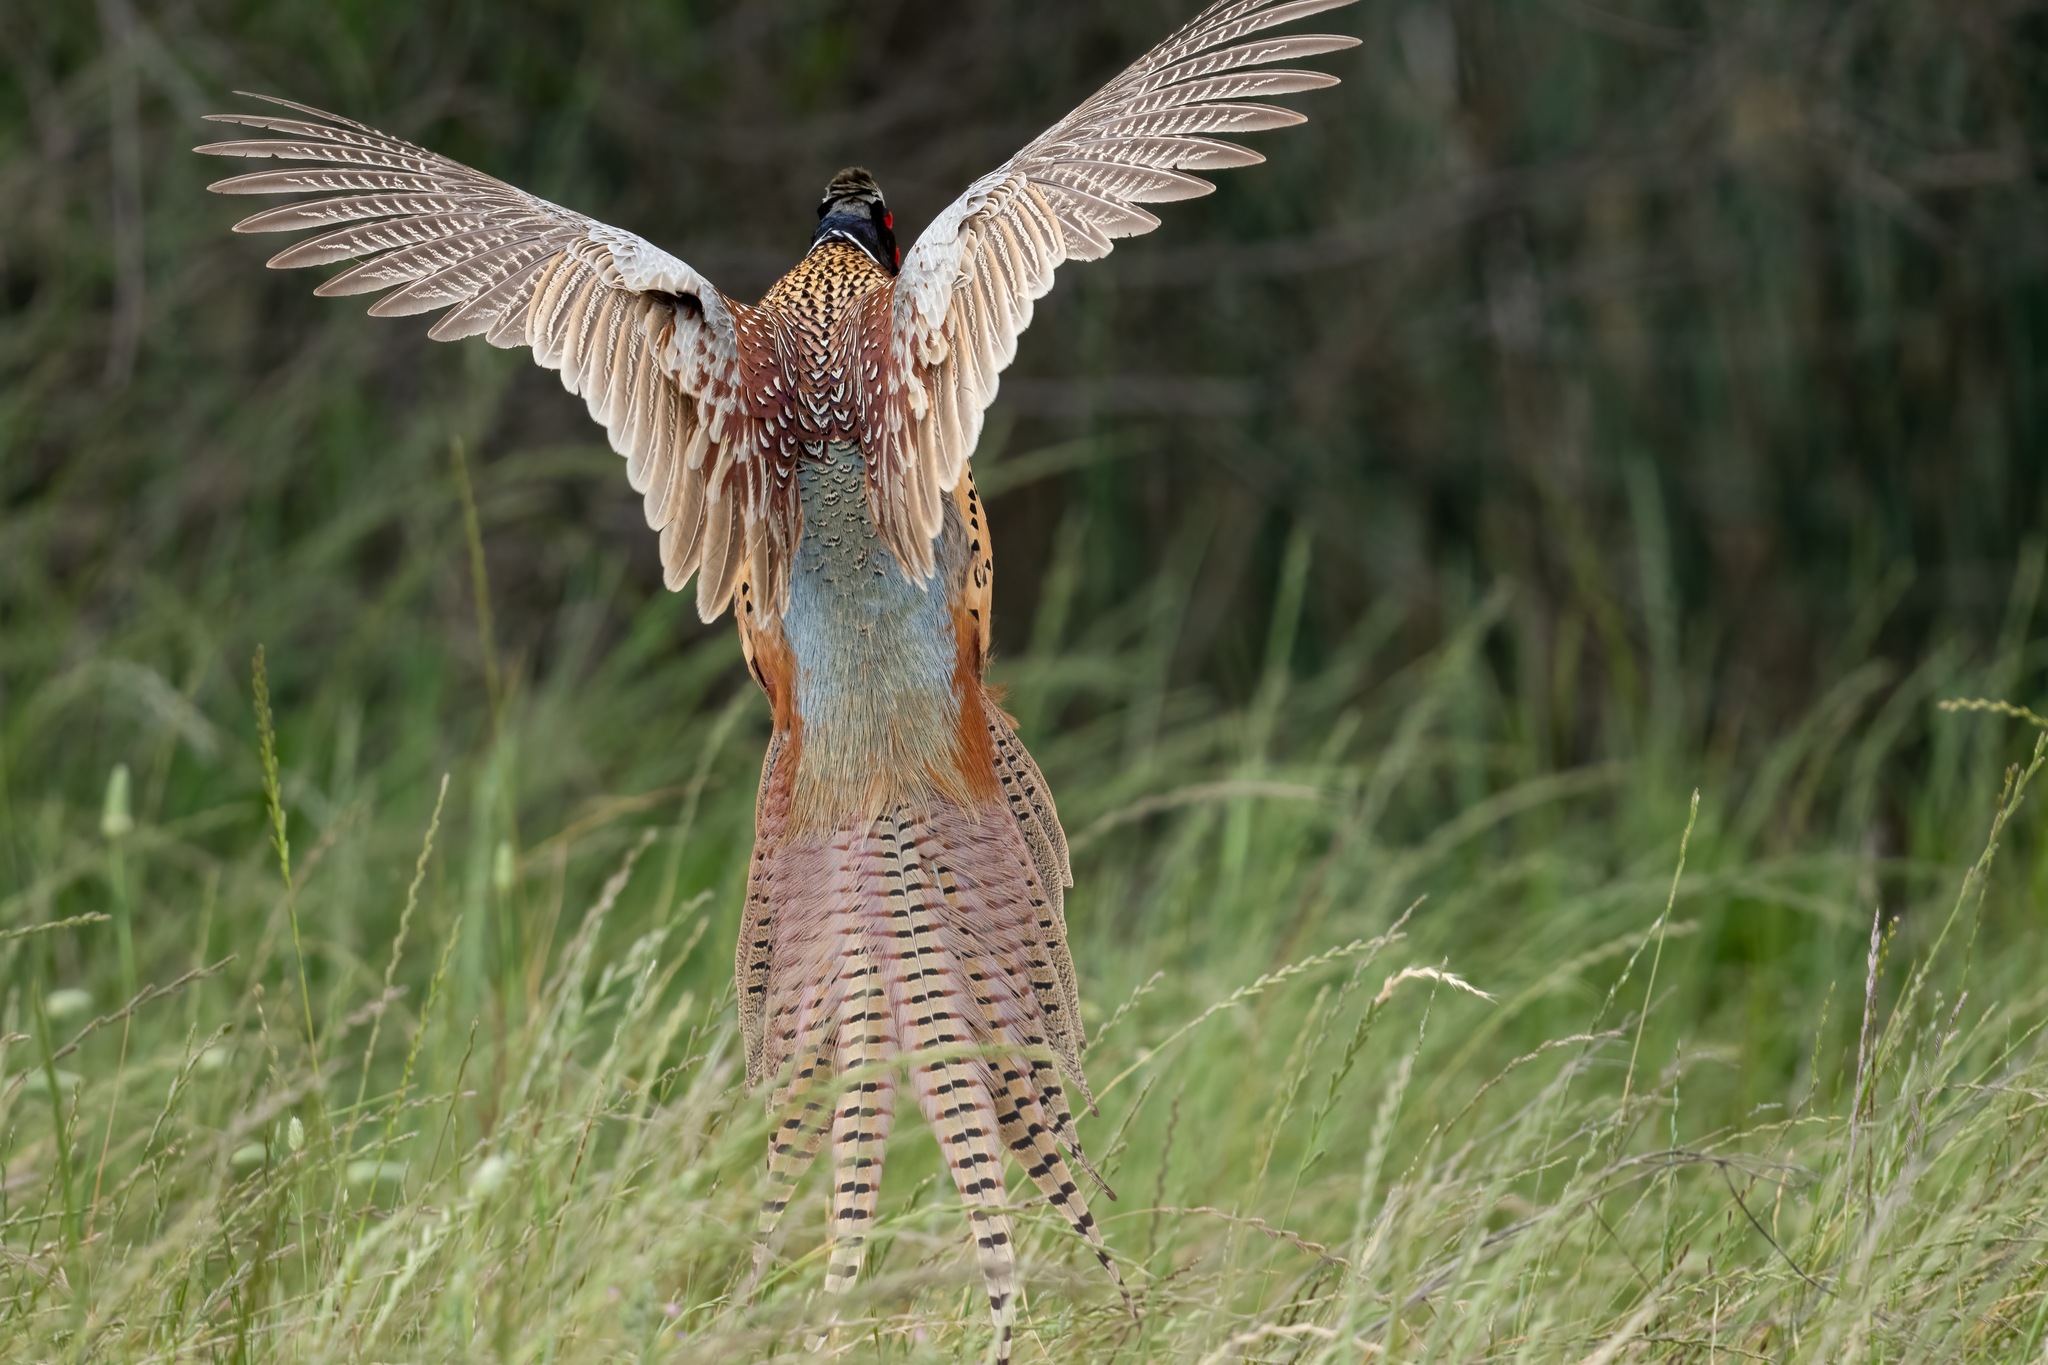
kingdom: Animalia
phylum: Chordata
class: Aves
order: Galliformes
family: Phasianidae
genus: Phasianus
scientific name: Phasianus colchicus
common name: Common pheasant
